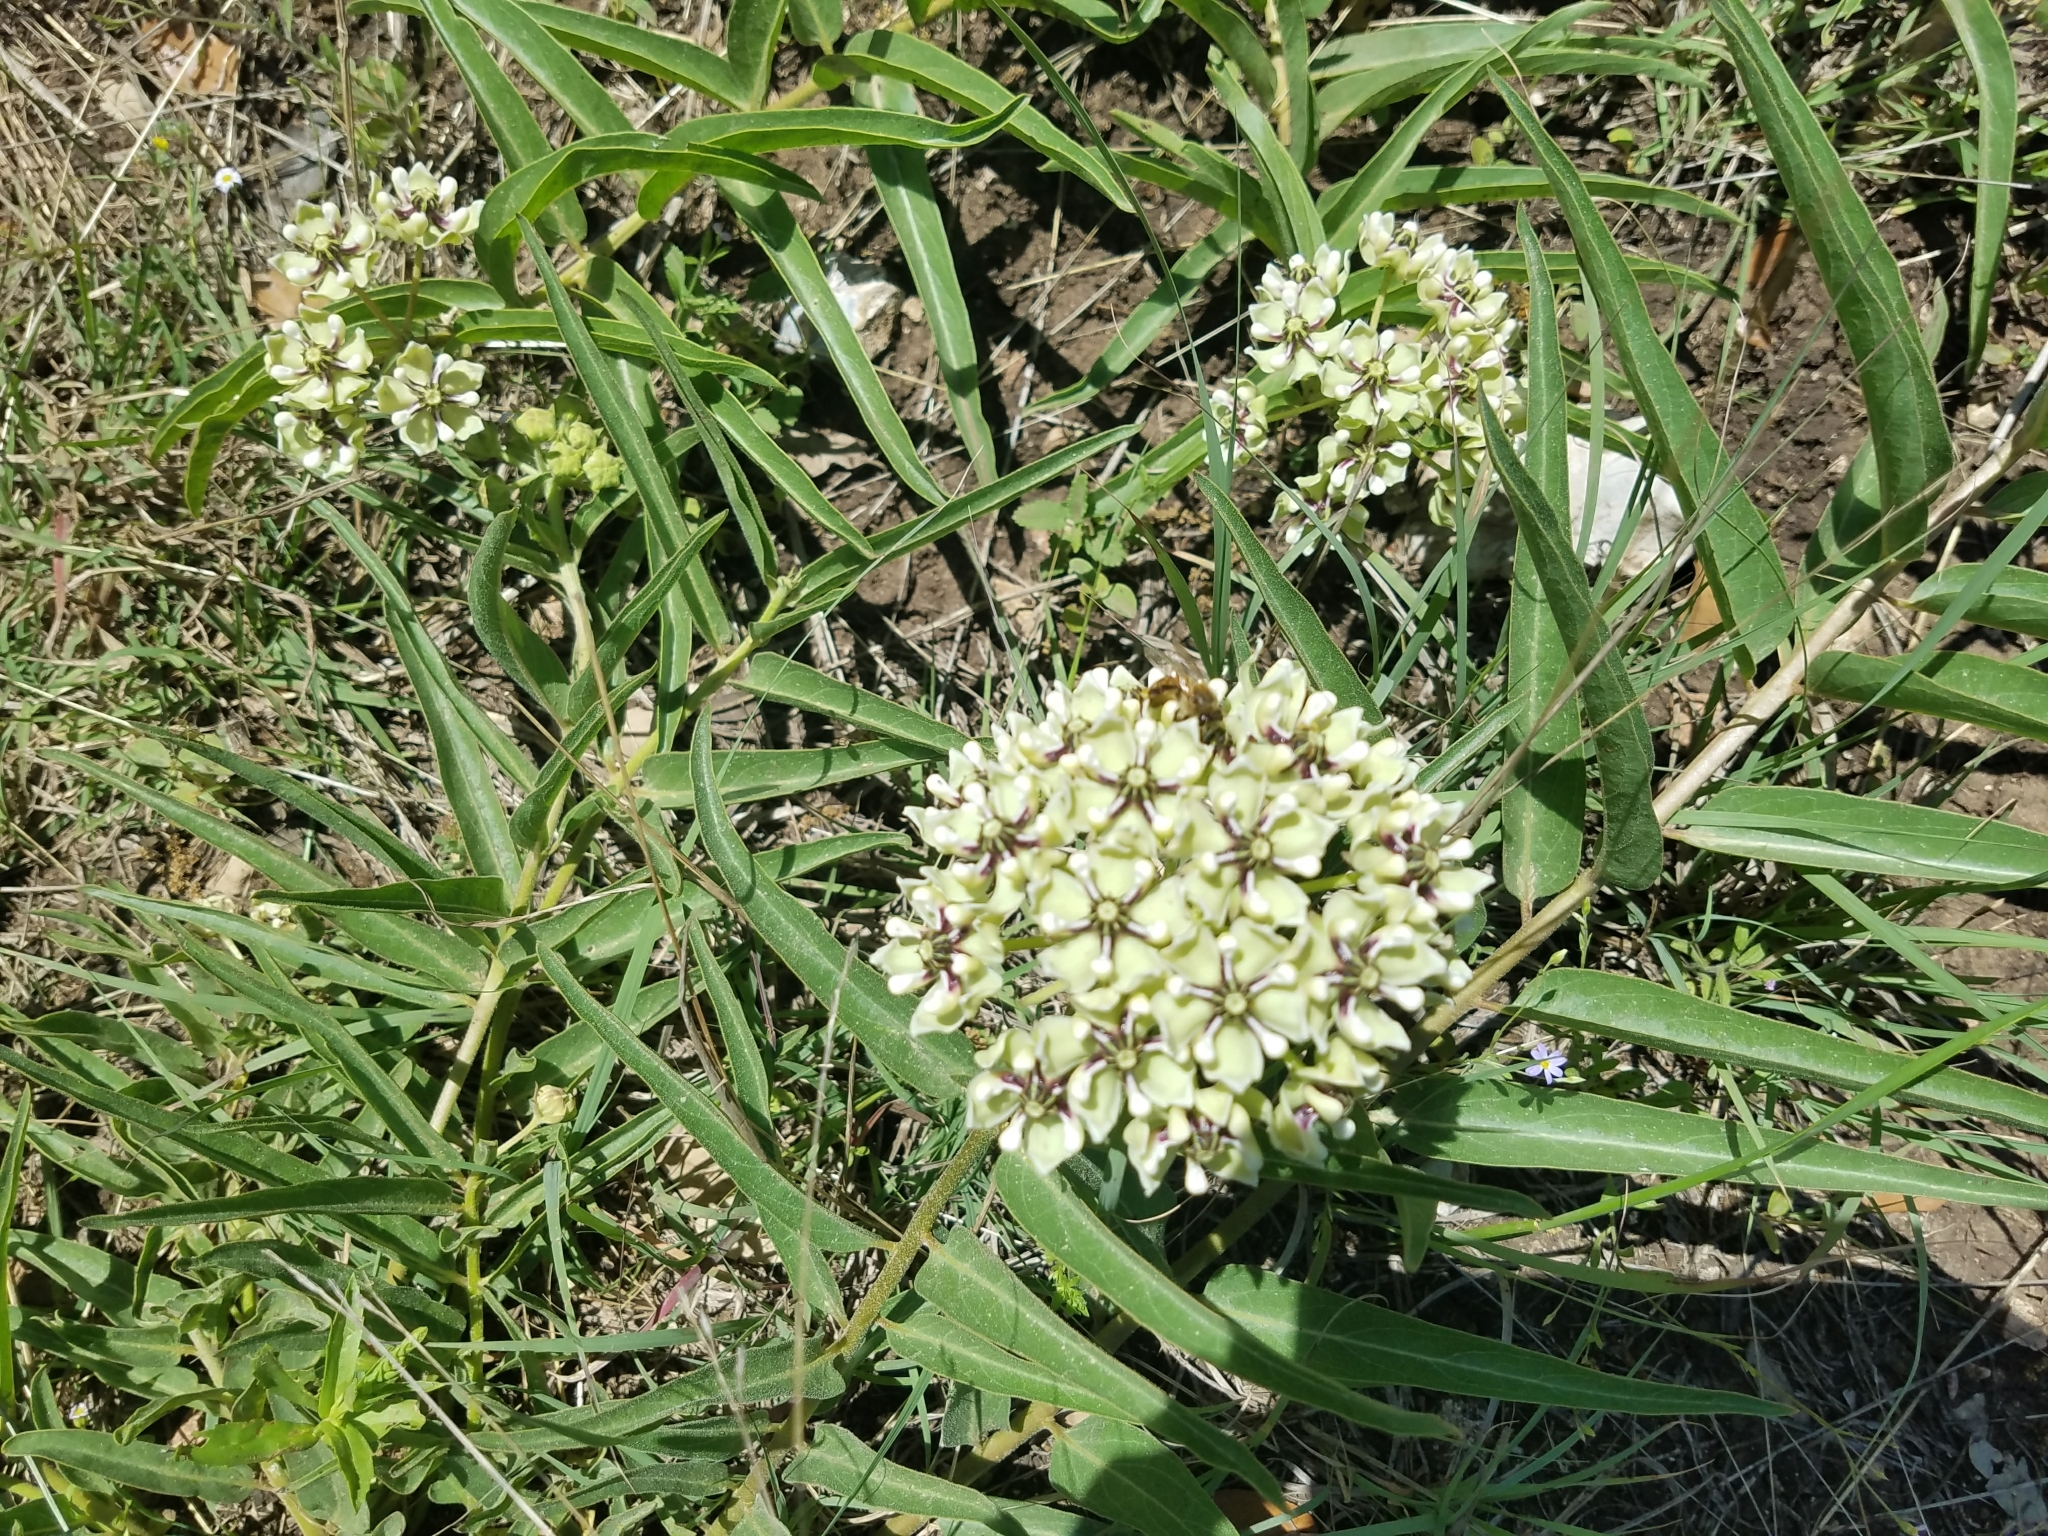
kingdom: Plantae
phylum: Tracheophyta
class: Magnoliopsida
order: Gentianales
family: Apocynaceae
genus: Asclepias
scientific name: Asclepias asperula
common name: Antelope horns
